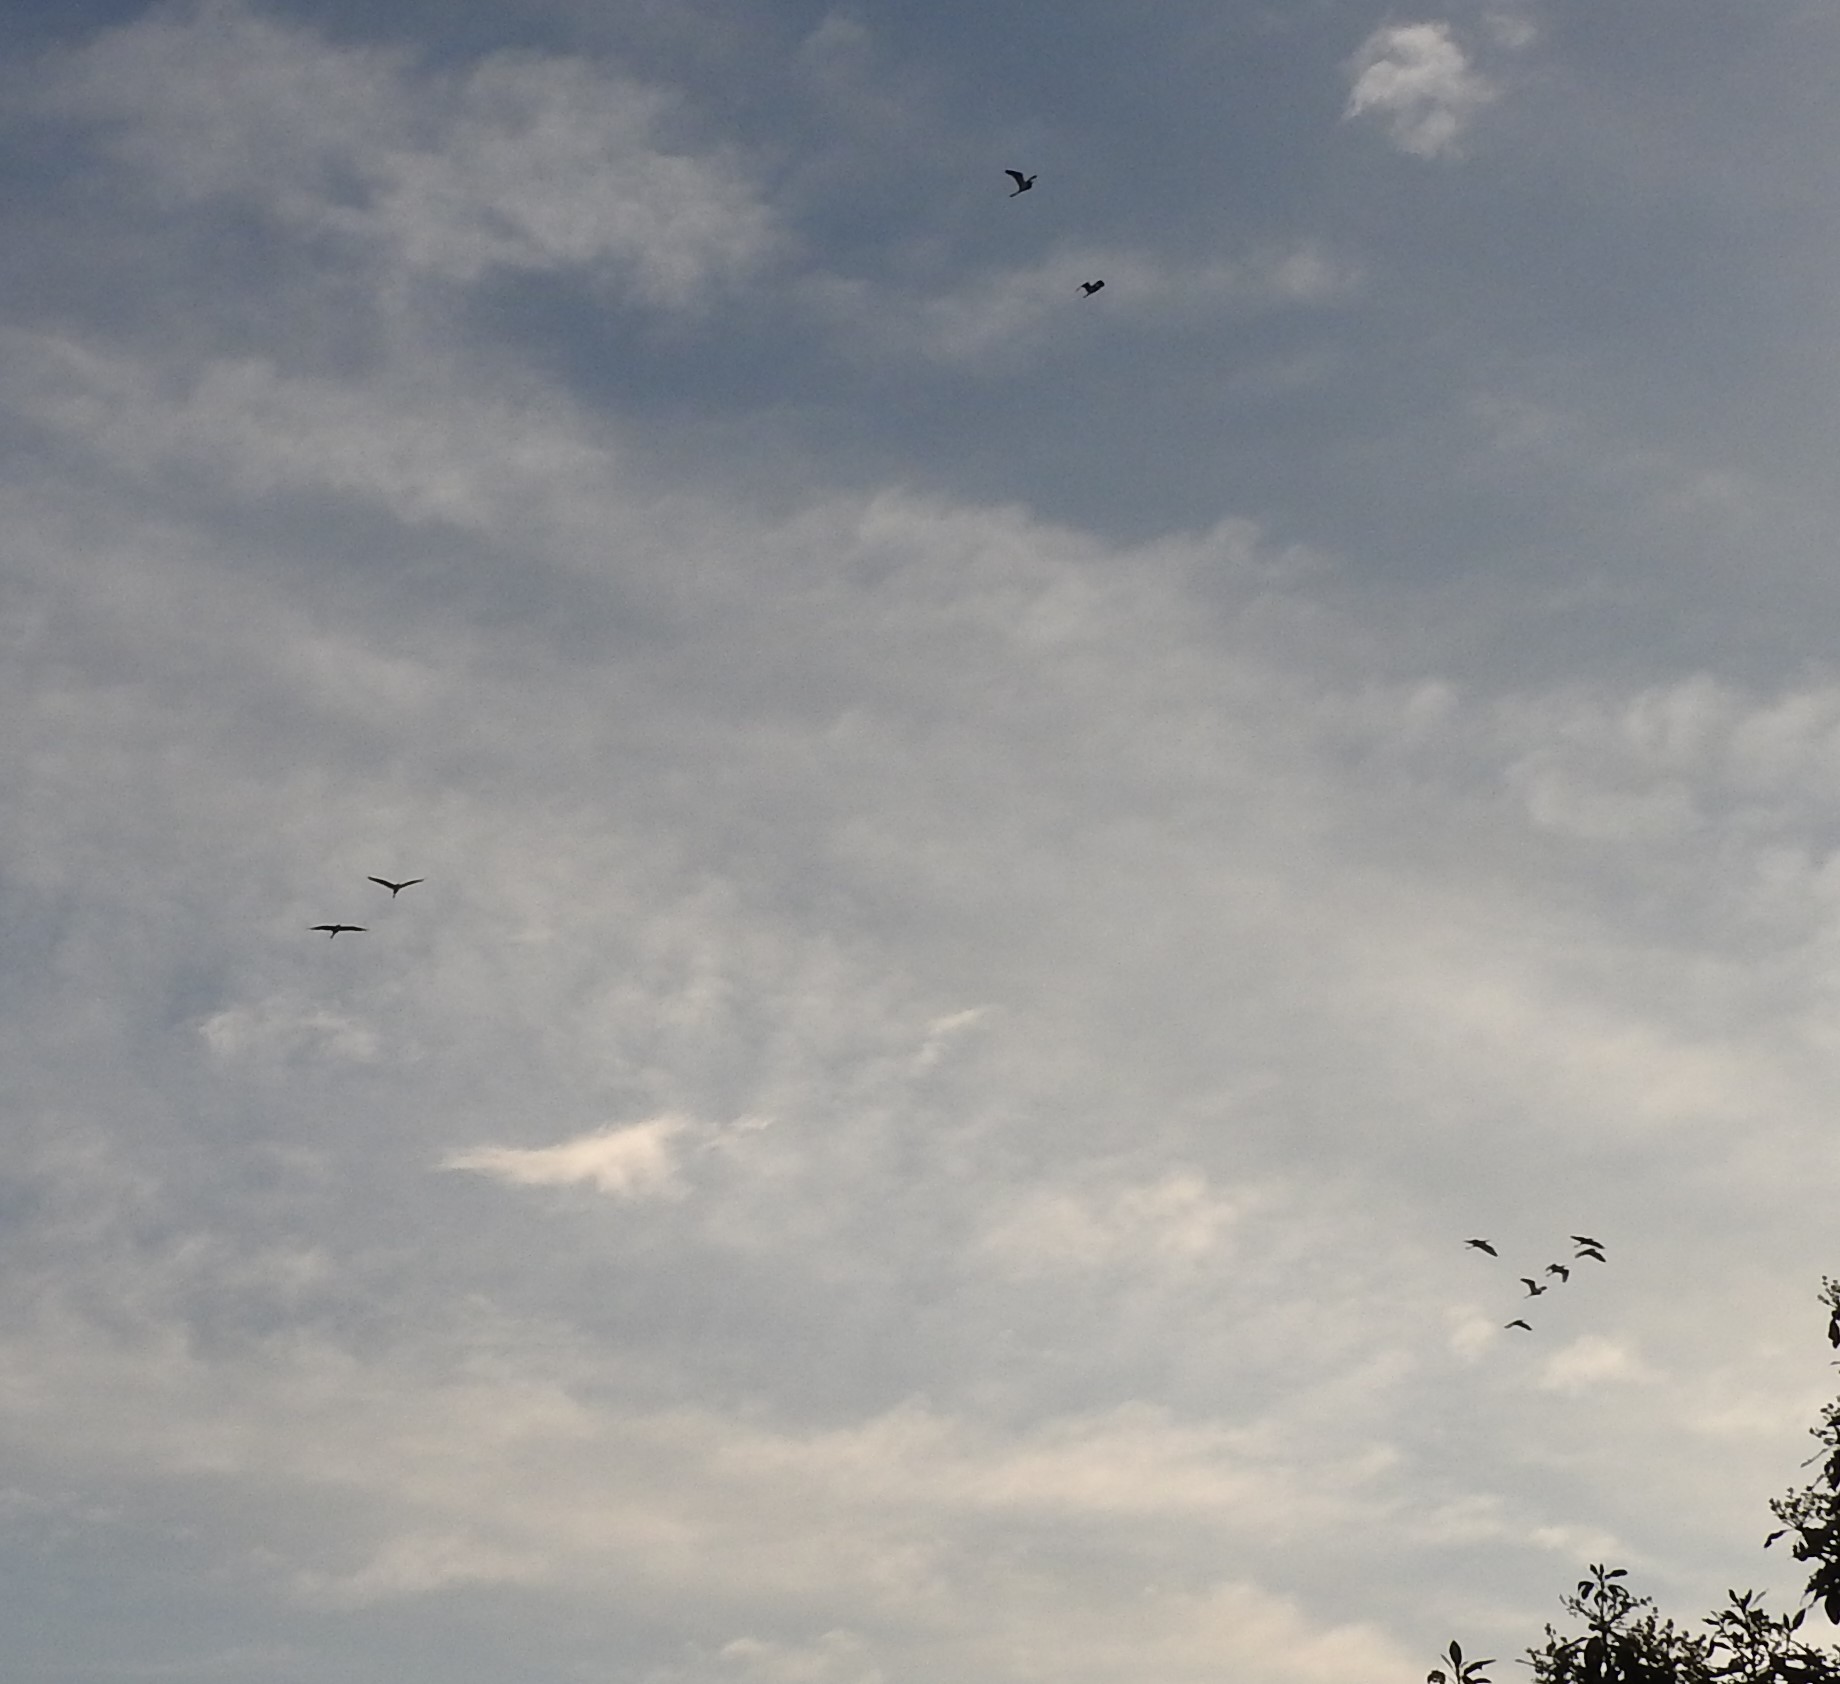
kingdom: Animalia
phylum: Chordata
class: Aves
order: Pelecaniformes
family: Ardeidae
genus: Bubulcus
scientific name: Bubulcus ibis
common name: Cattle egret
